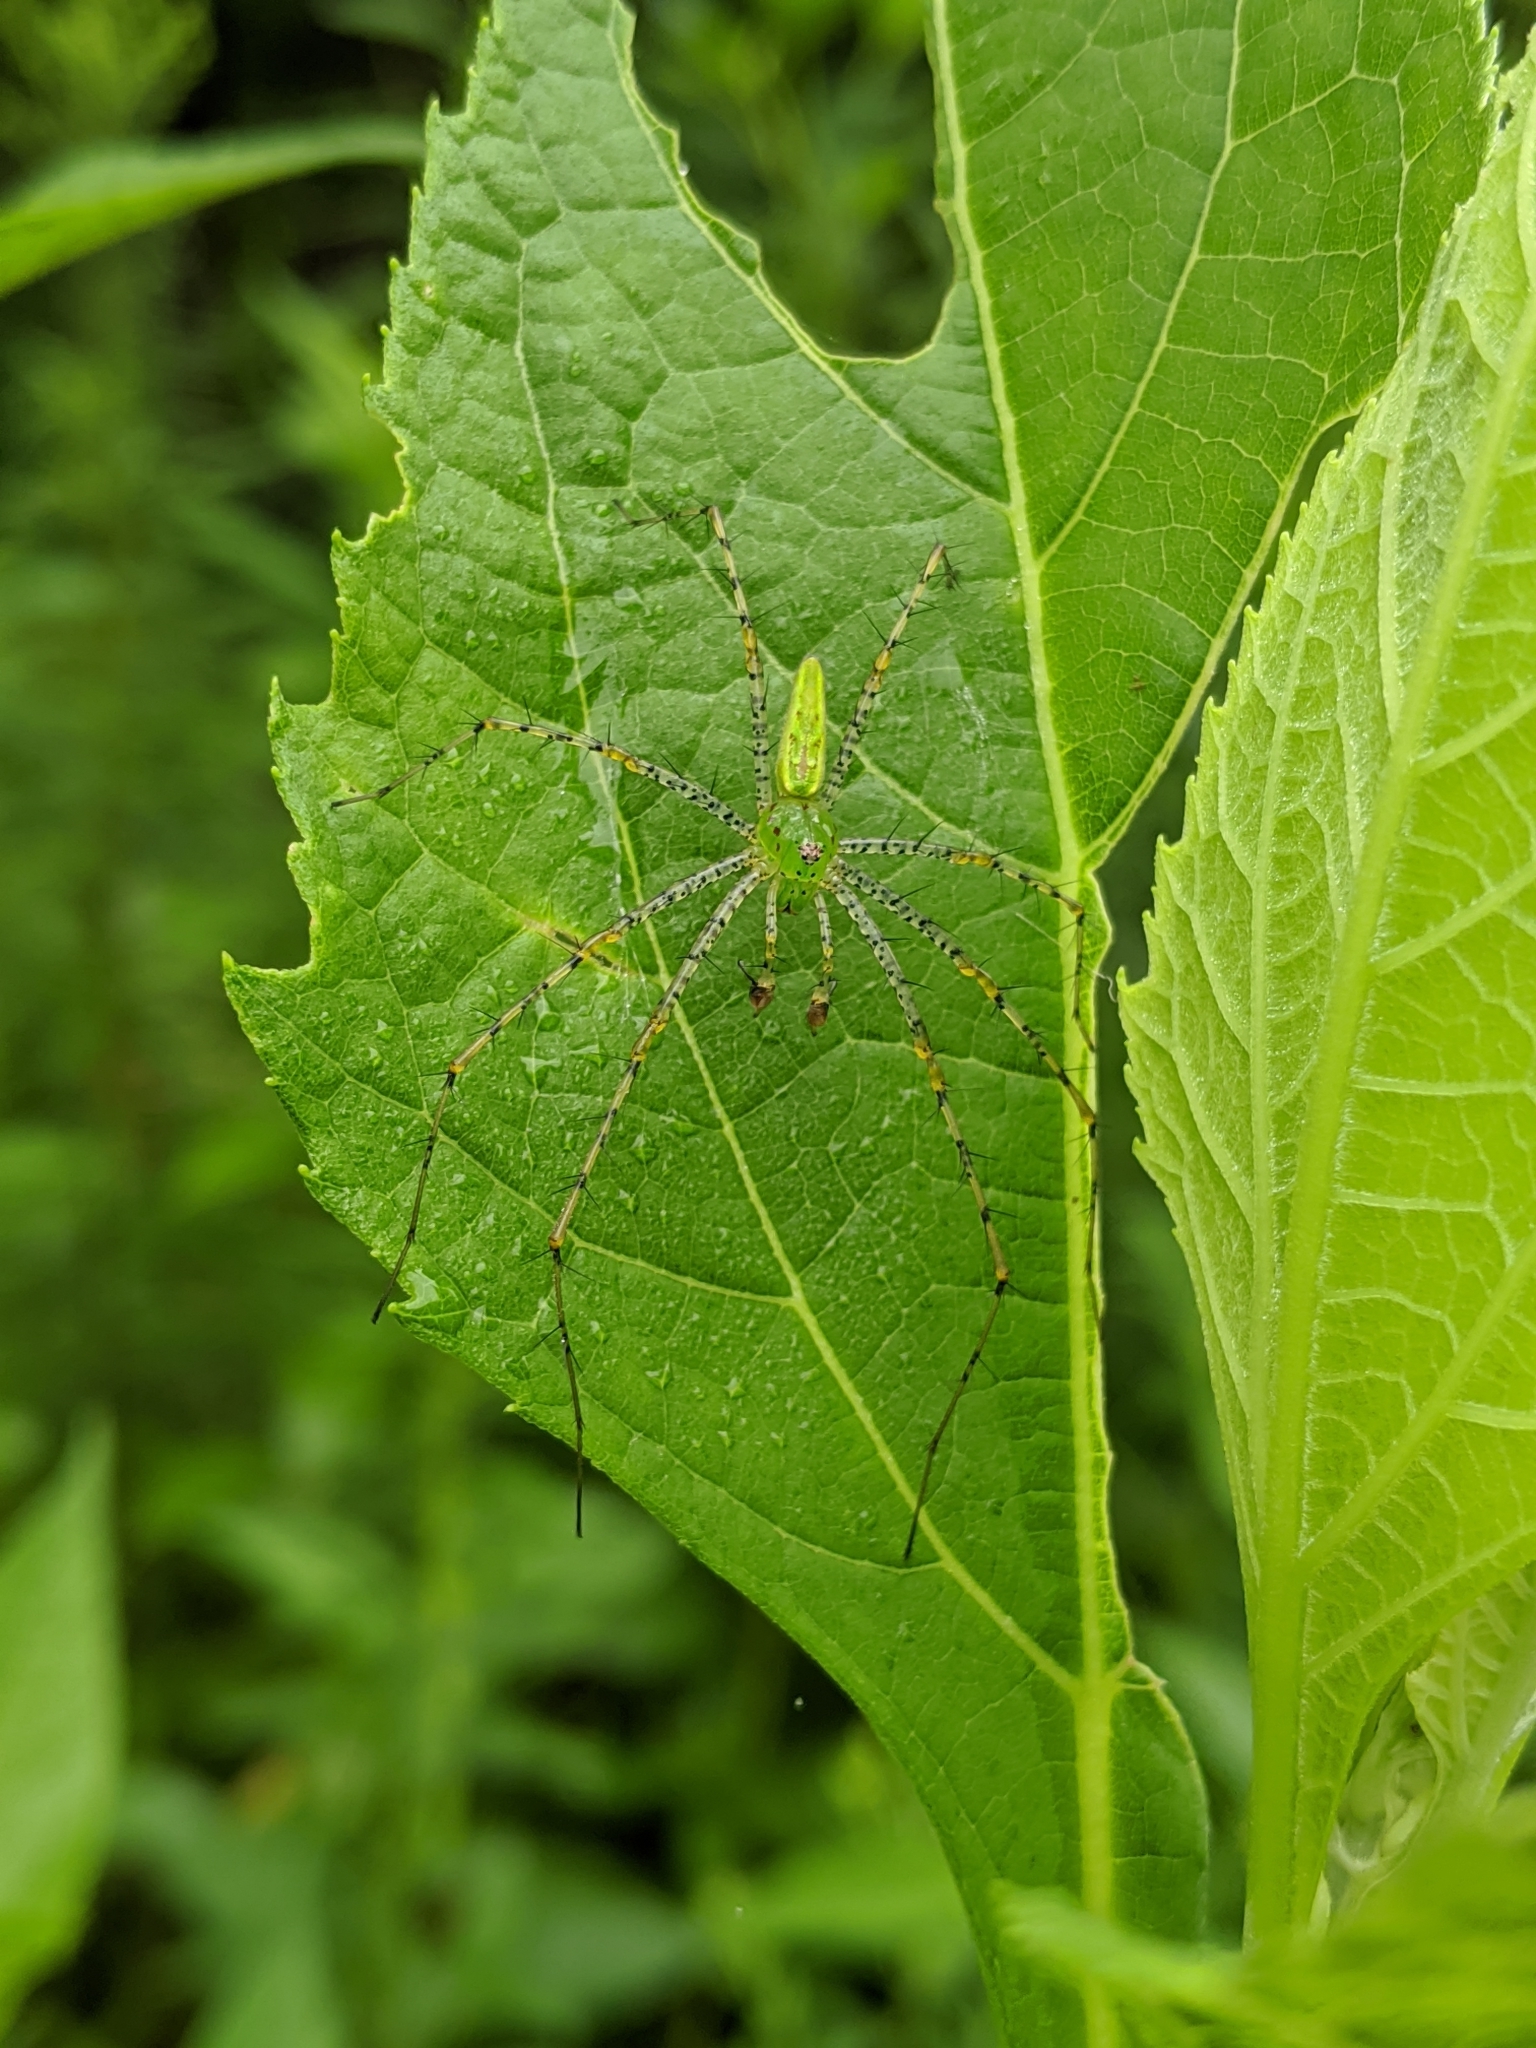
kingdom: Animalia
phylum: Arthropoda
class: Arachnida
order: Araneae
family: Oxyopidae
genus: Peucetia
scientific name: Peucetia viridans
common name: Lynx spiders
